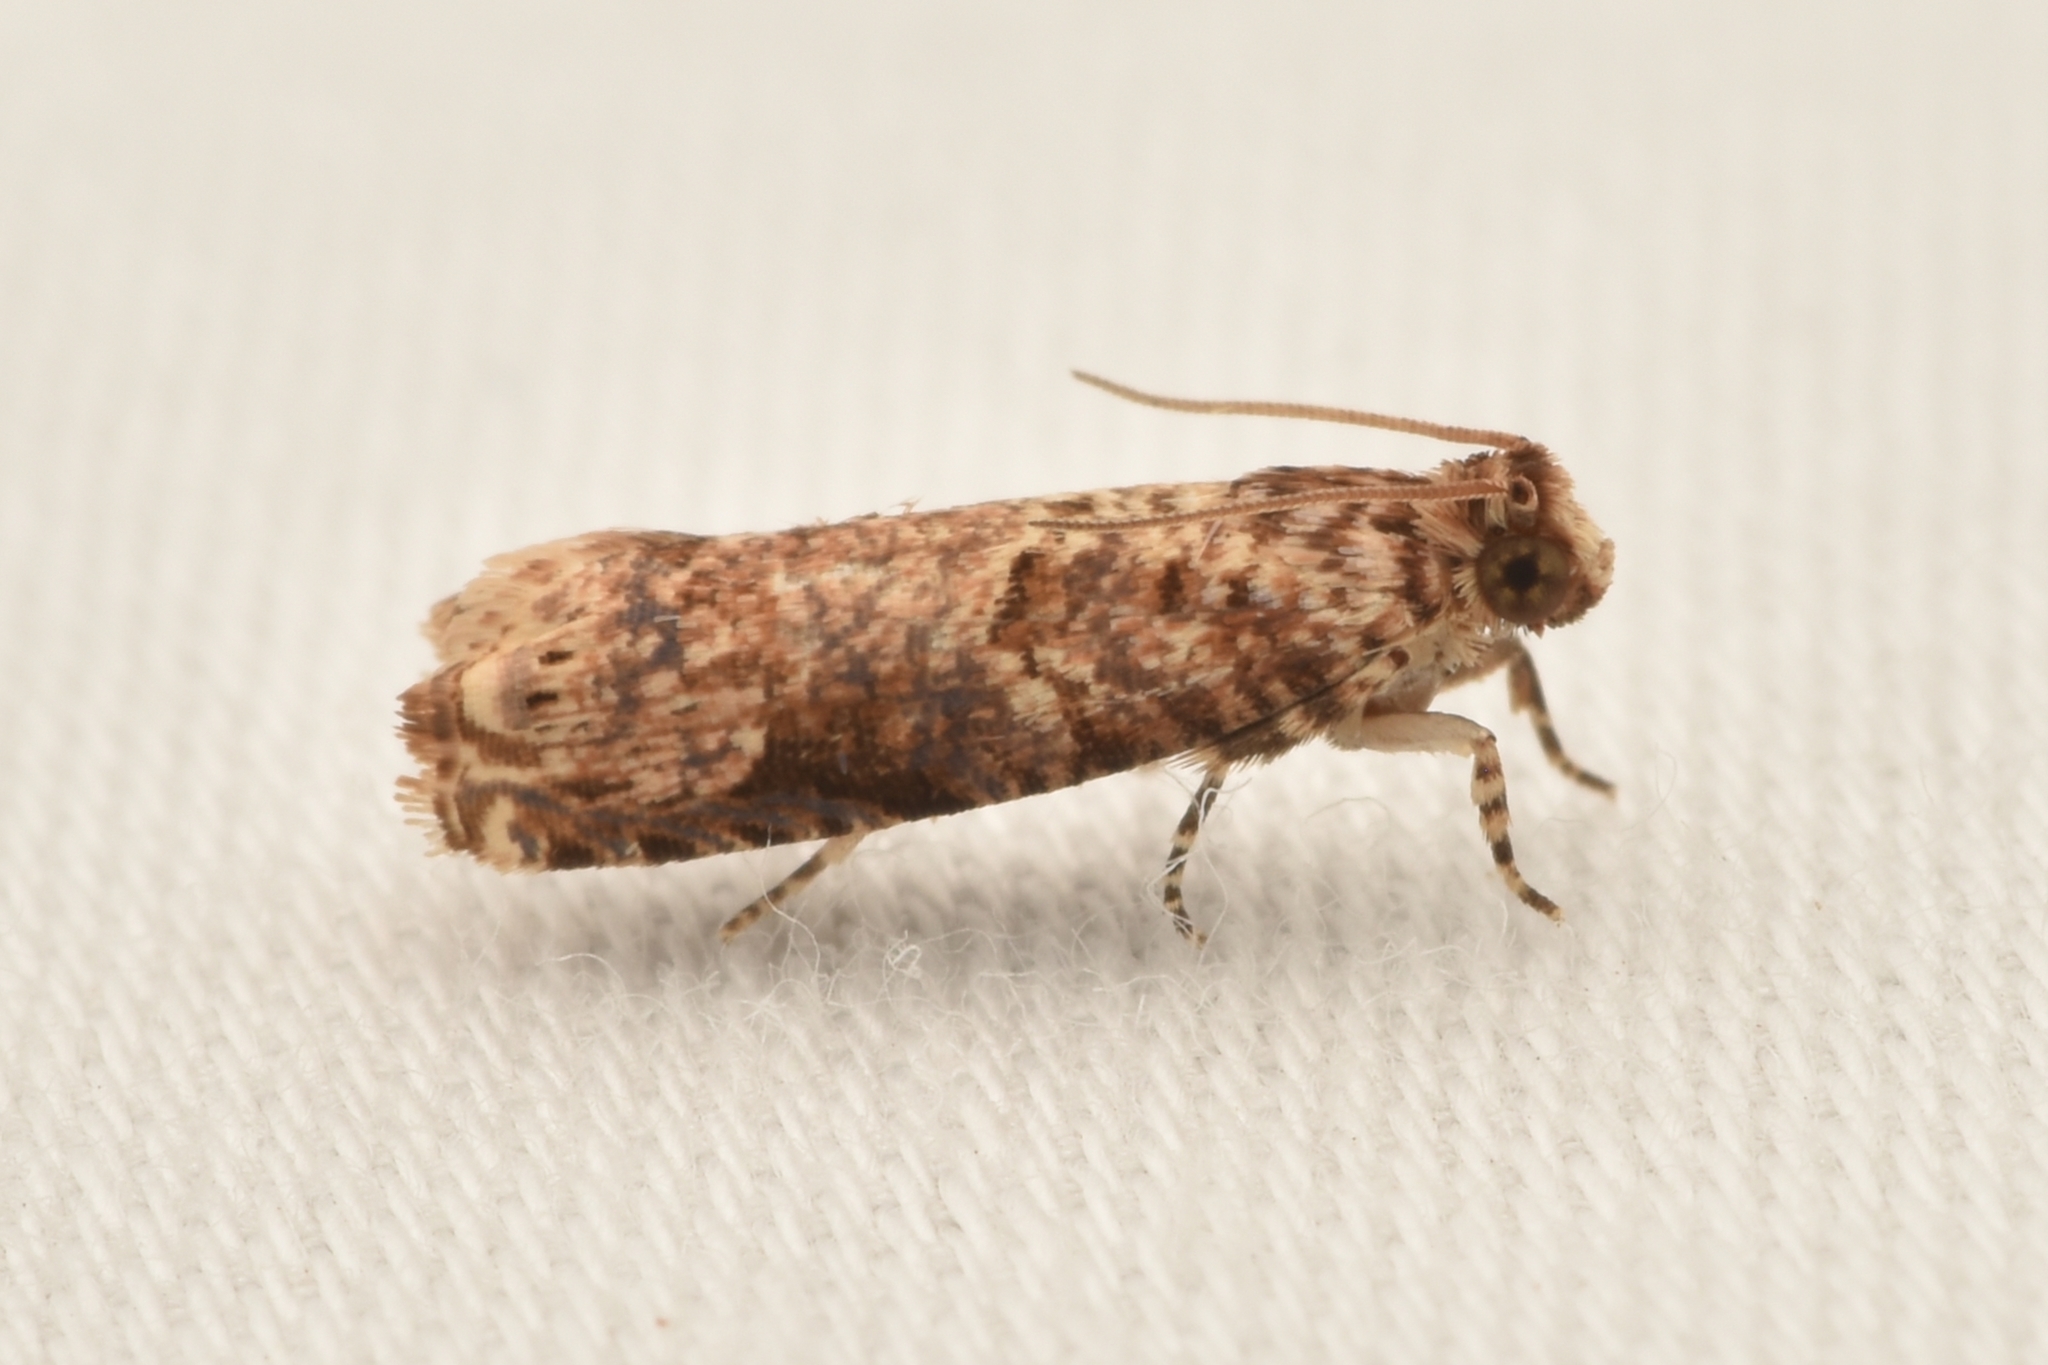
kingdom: Animalia
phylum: Arthropoda
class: Insecta
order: Lepidoptera
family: Tortricidae
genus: Episimus
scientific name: Episimus argutana
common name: Sumac leaftier moth
